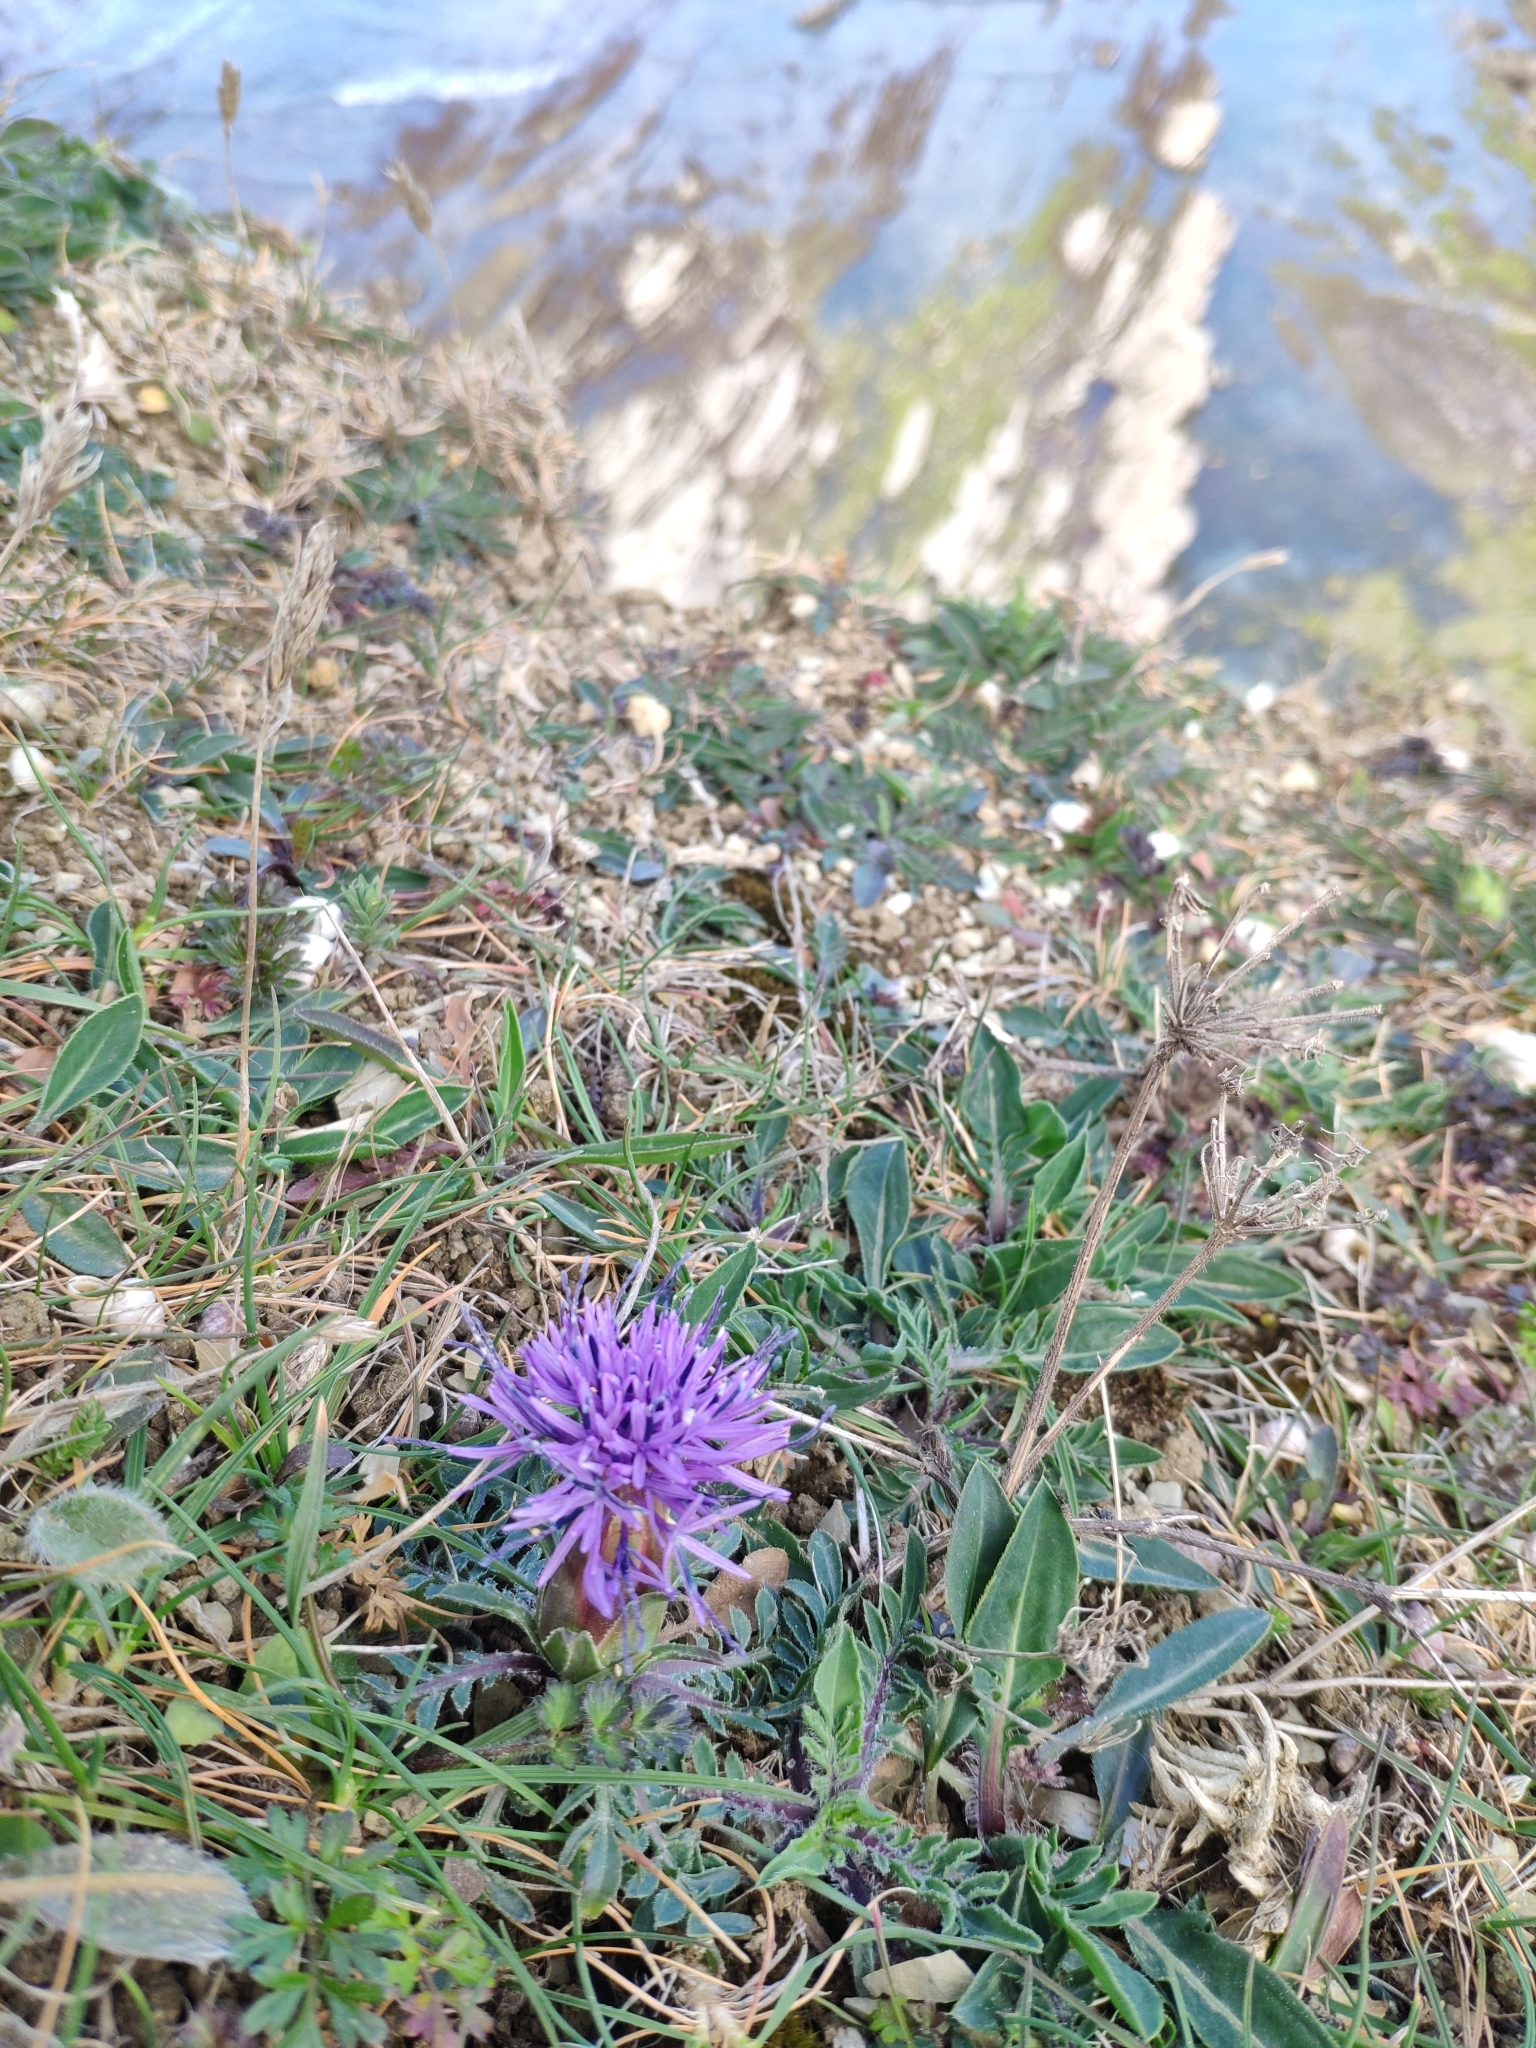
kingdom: Plantae
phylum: Tracheophyta
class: Magnoliopsida
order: Asterales
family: Asteraceae
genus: Carduncellus
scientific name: Carduncellus mitissimus
